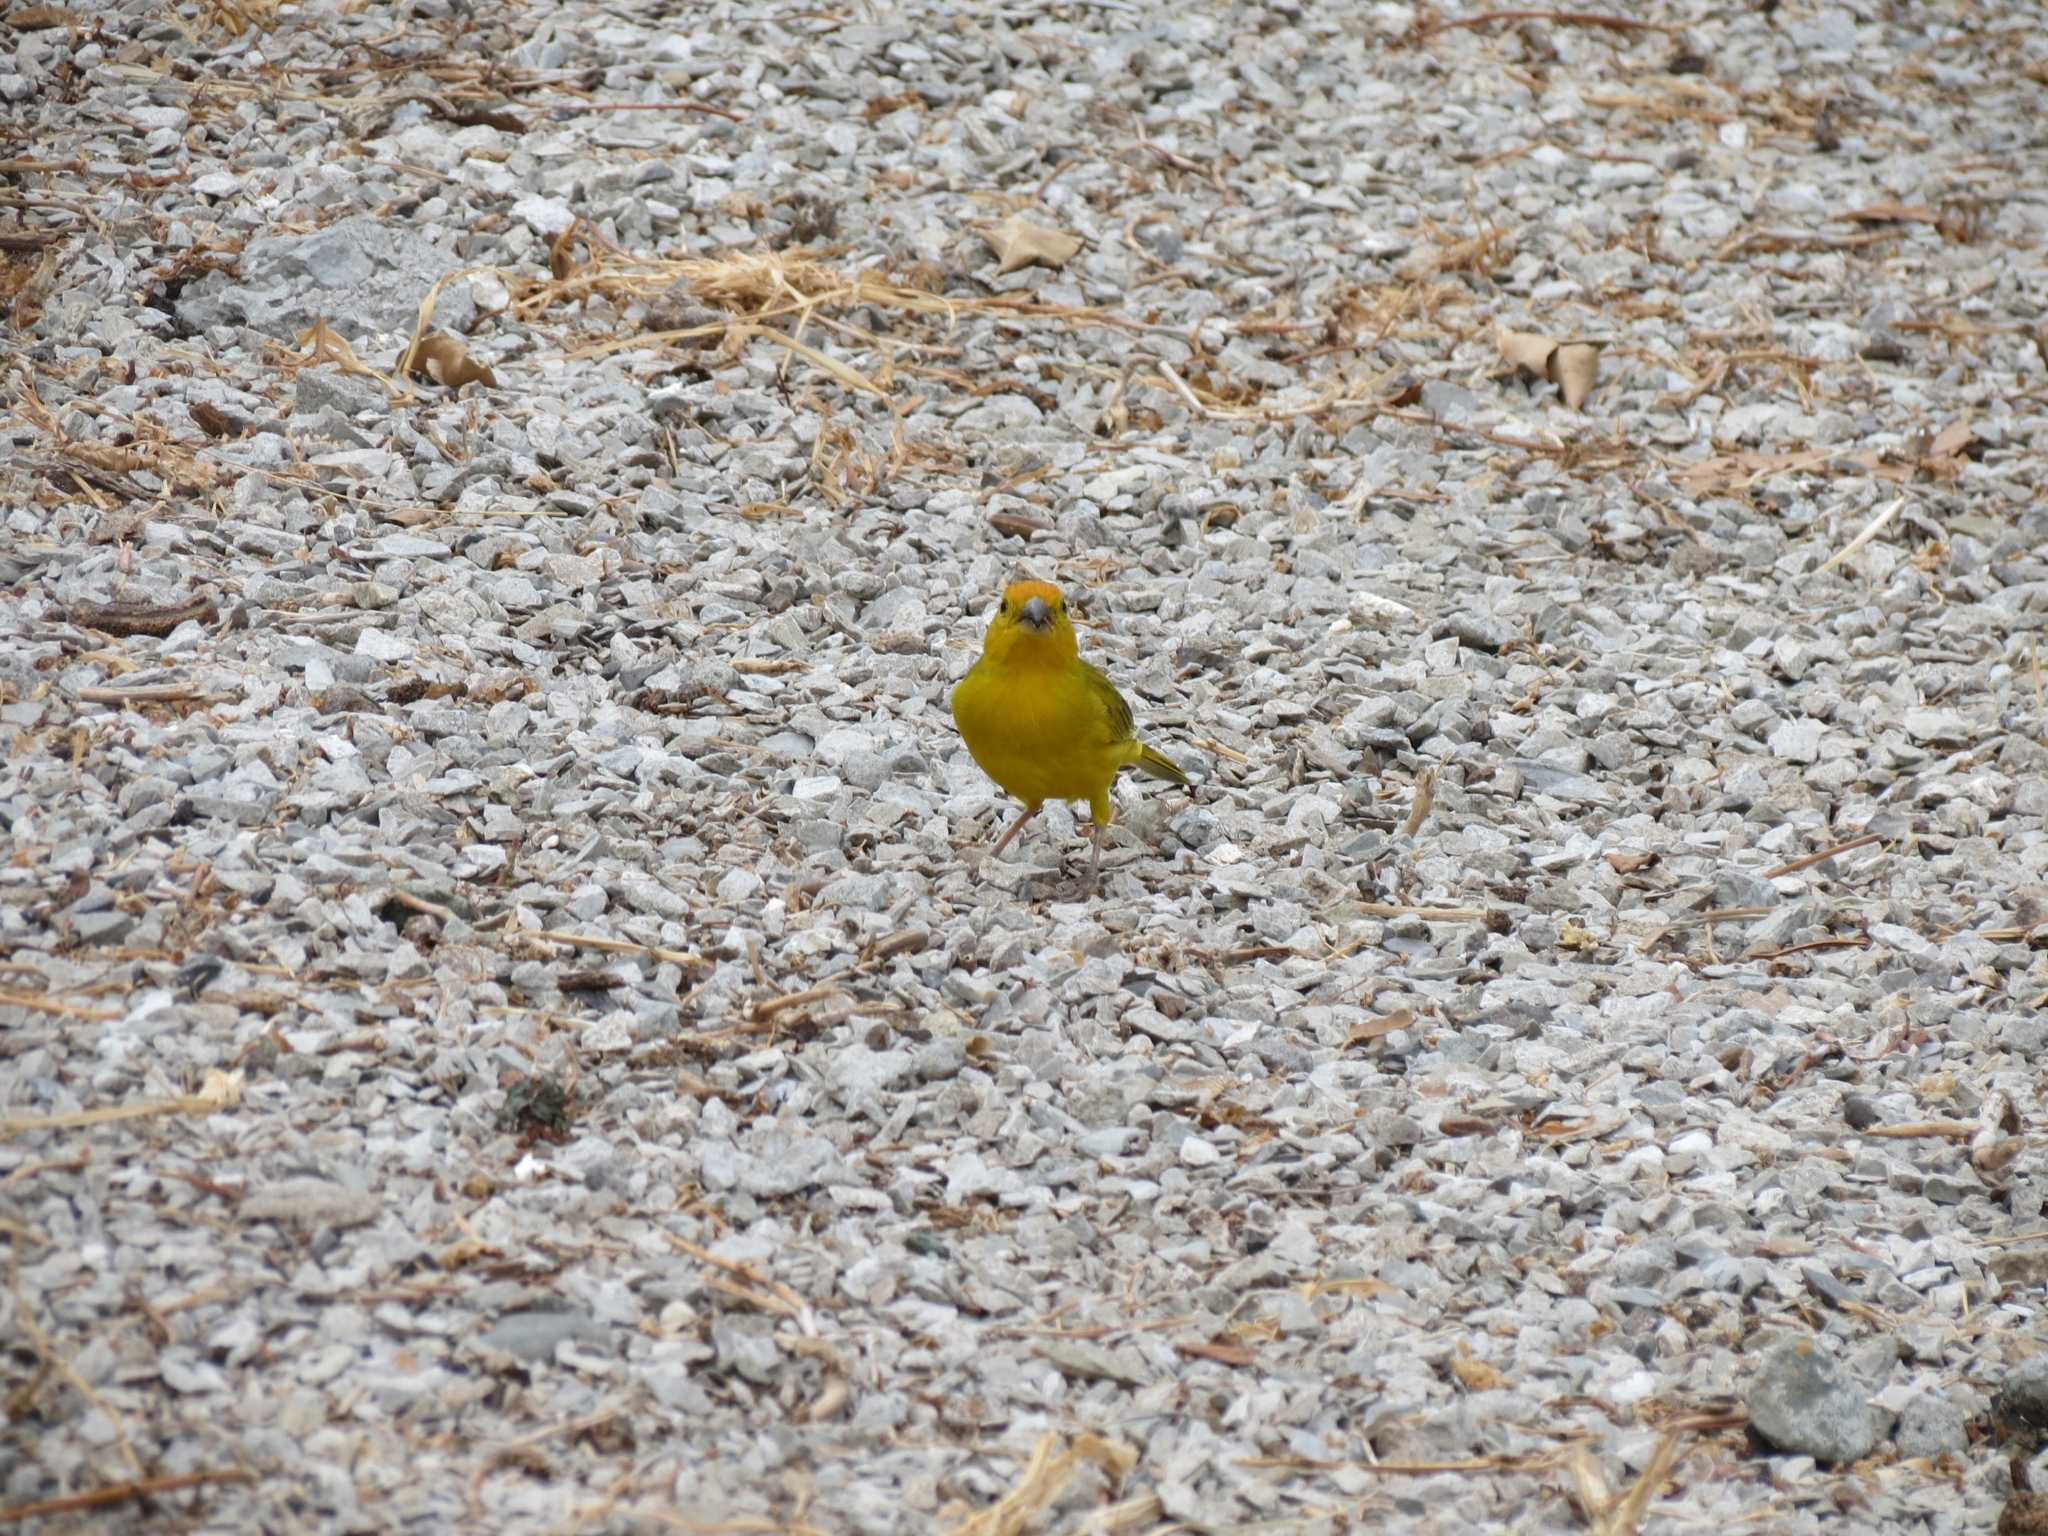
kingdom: Animalia
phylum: Chordata
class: Aves
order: Passeriformes
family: Thraupidae
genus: Sicalis
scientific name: Sicalis flaveola
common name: Saffron finch
